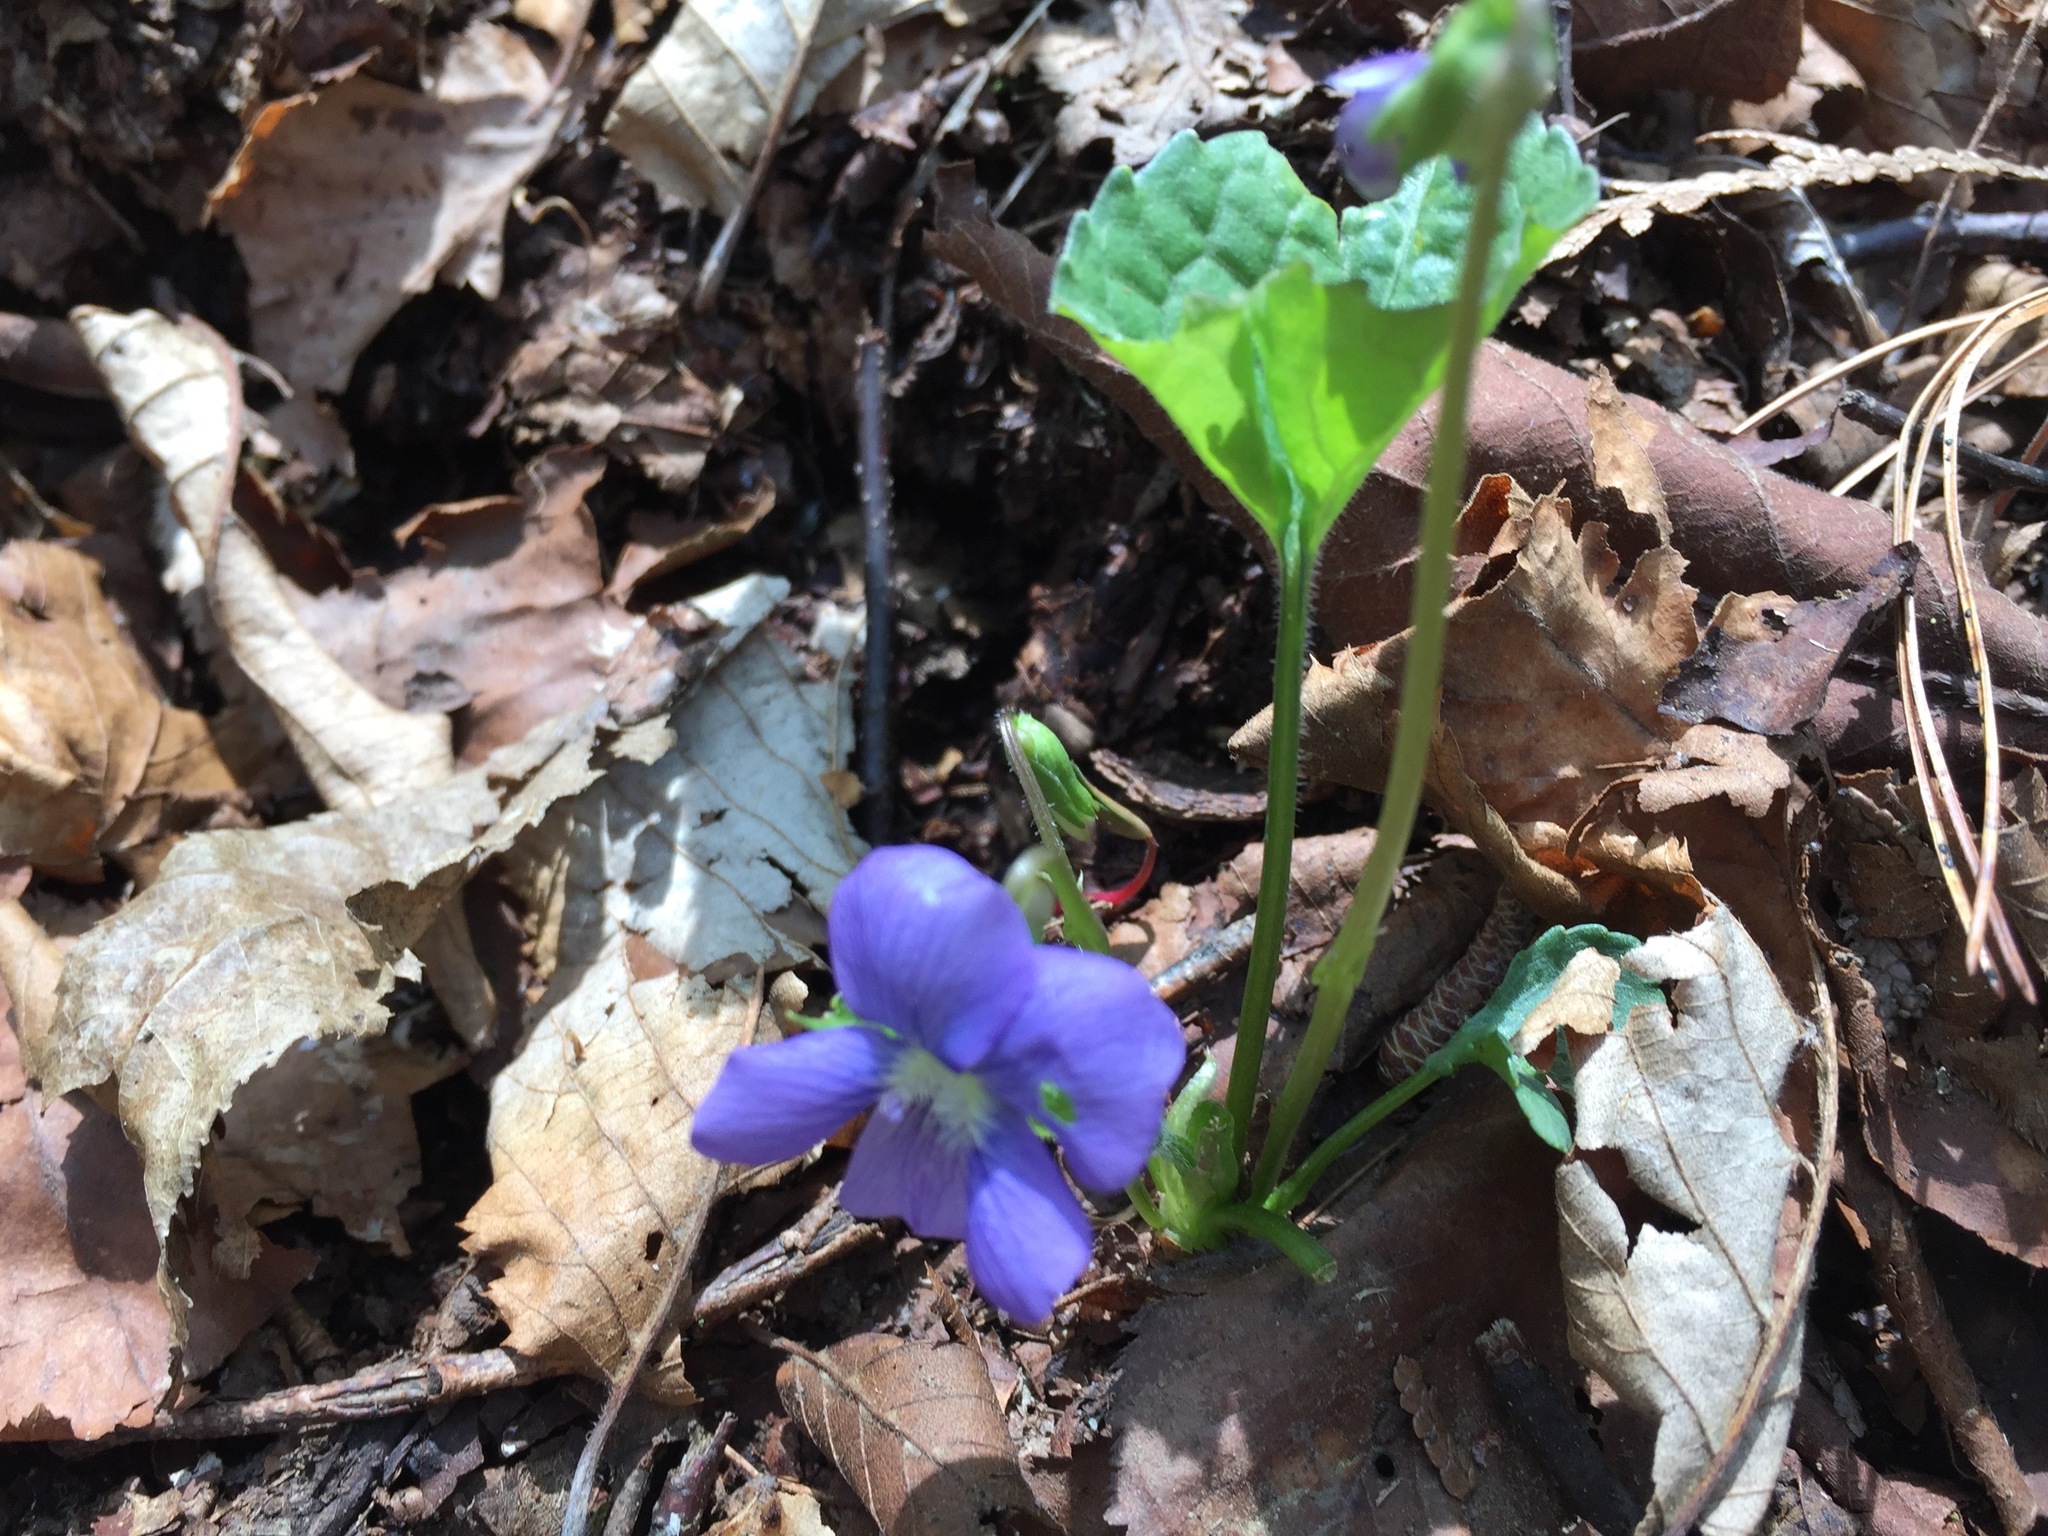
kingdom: Plantae
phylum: Tracheophyta
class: Magnoliopsida
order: Malpighiales
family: Violaceae
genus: Viola
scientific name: Viola sororia
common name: Dooryard violet
